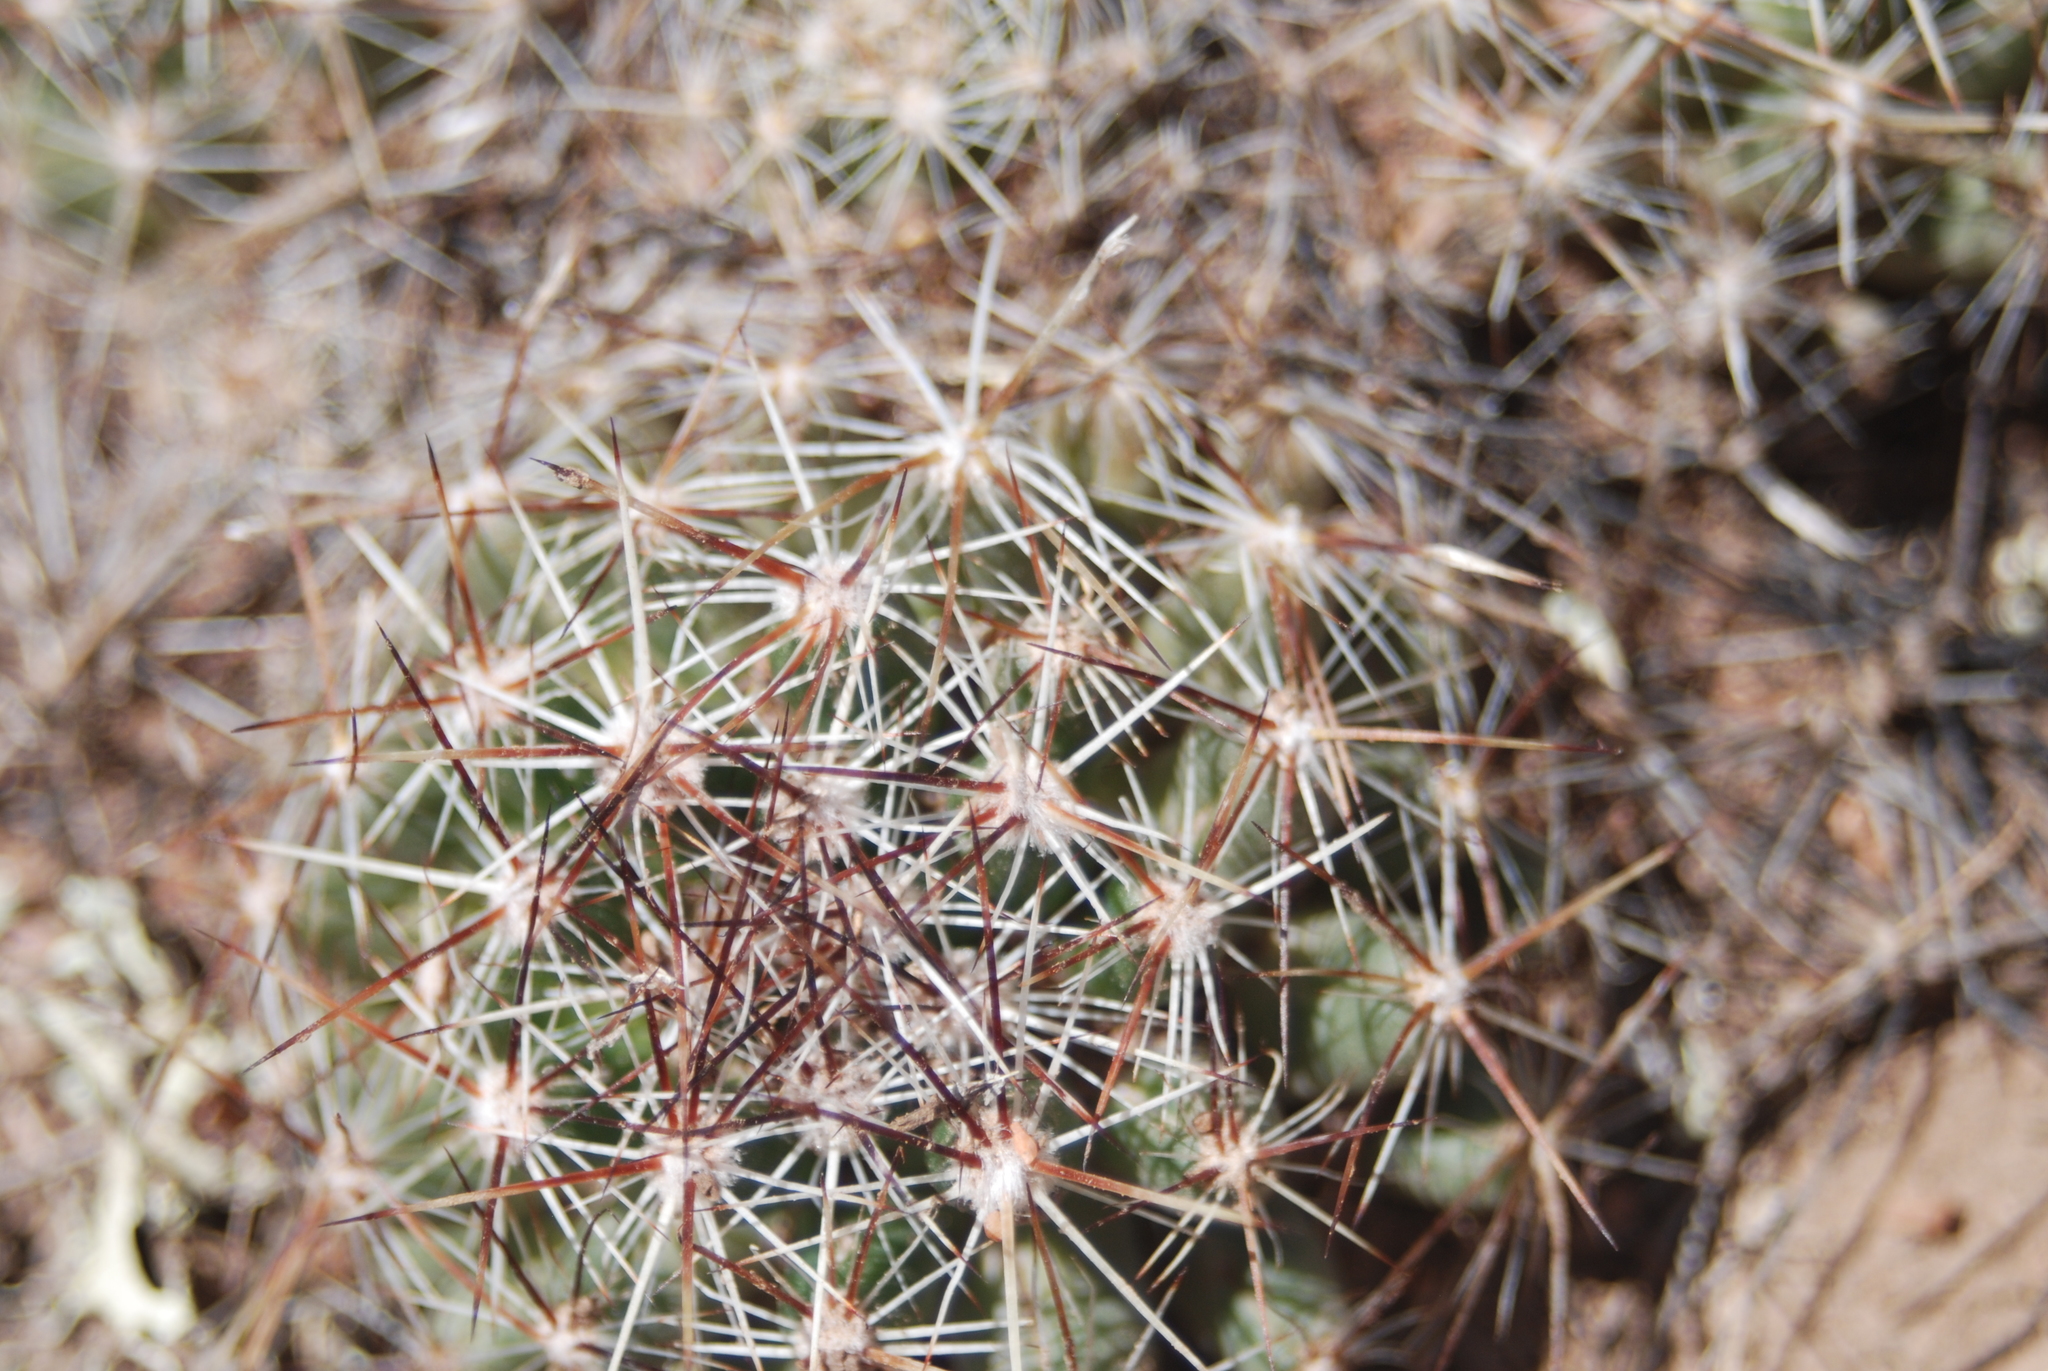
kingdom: Plantae
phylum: Tracheophyta
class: Magnoliopsida
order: Caryophyllales
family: Cactaceae
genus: Pelecyphora
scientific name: Pelecyphora vivipara
